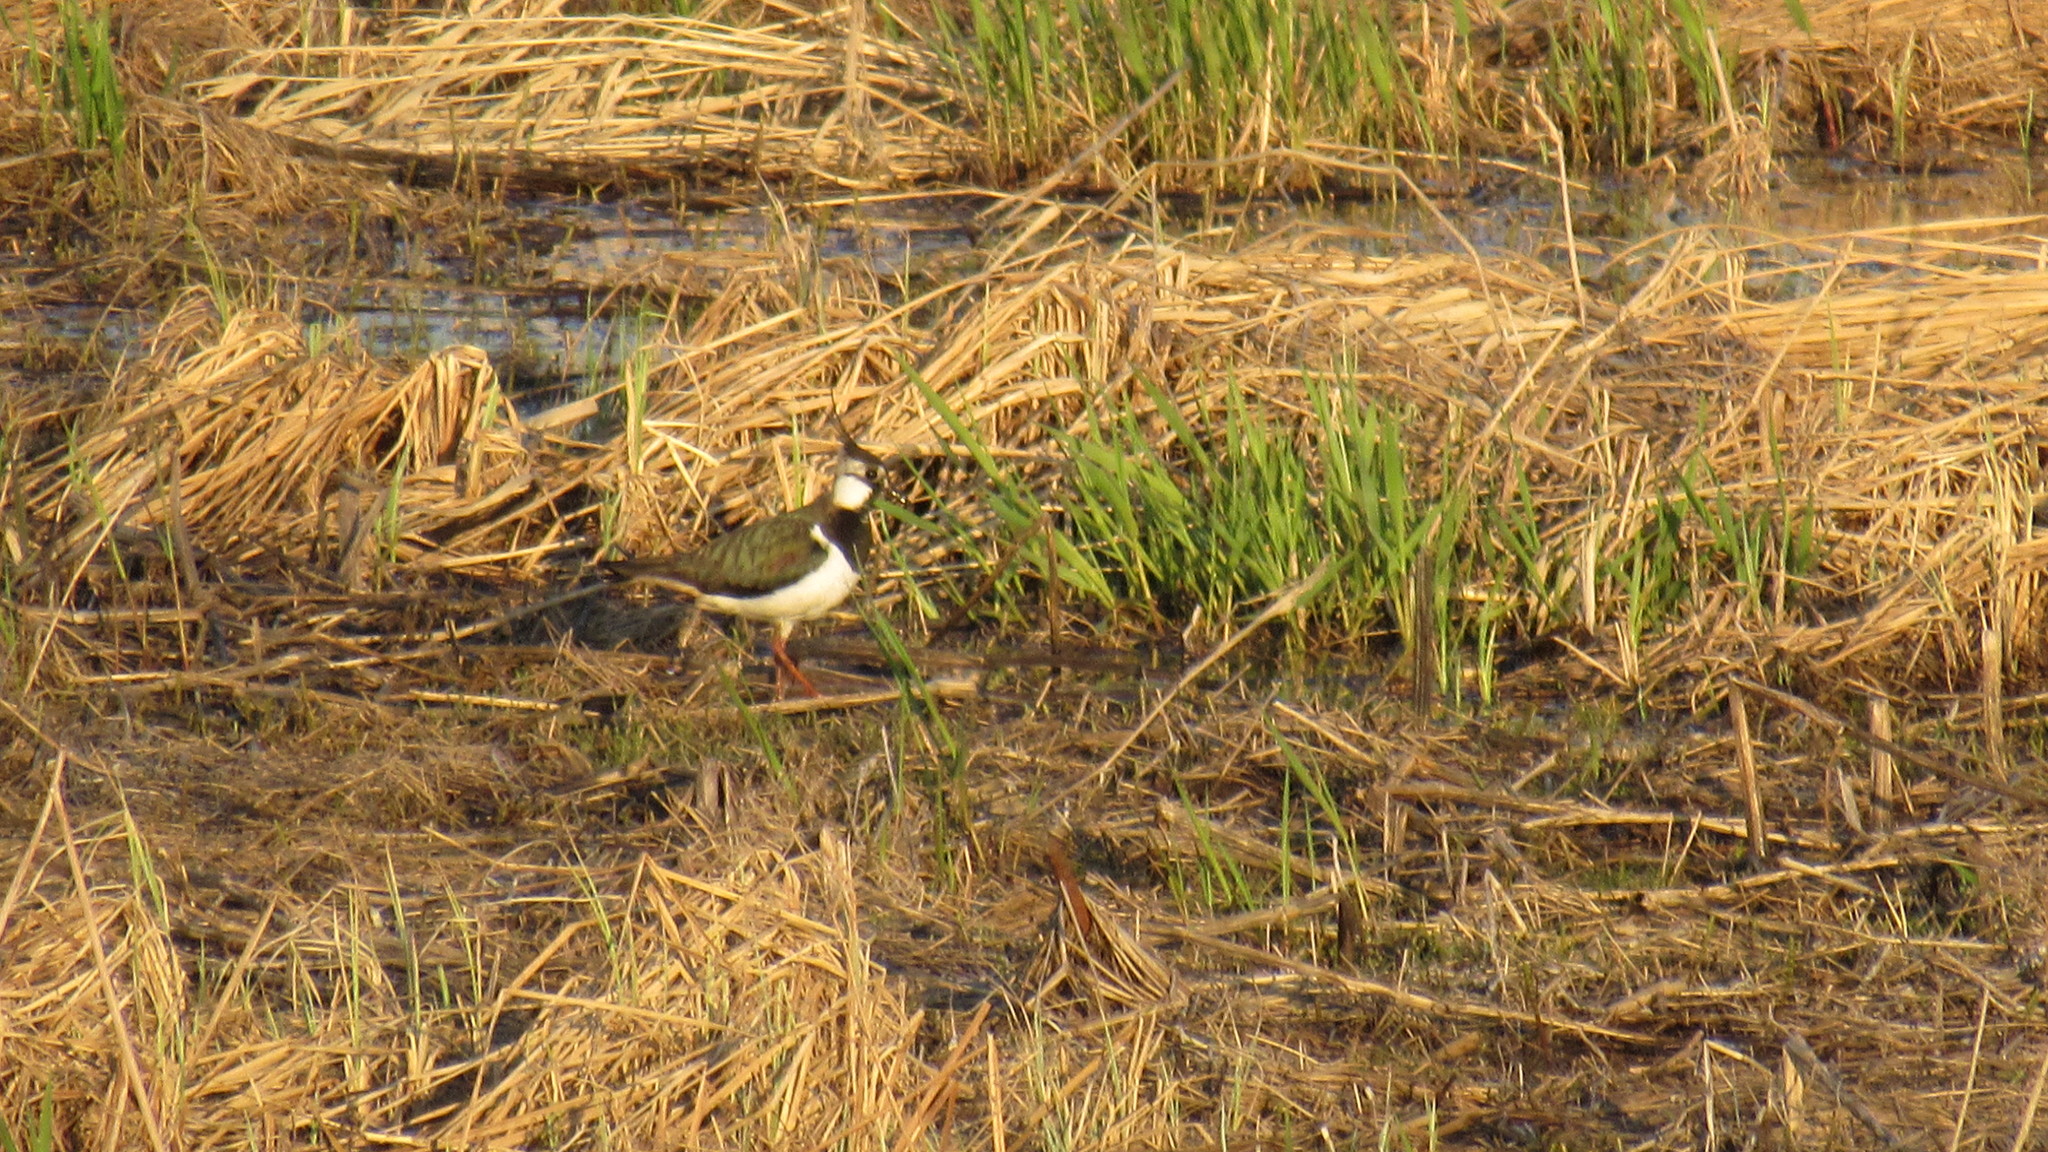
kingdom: Animalia
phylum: Chordata
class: Aves
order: Charadriiformes
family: Charadriidae
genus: Vanellus
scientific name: Vanellus vanellus
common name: Northern lapwing
